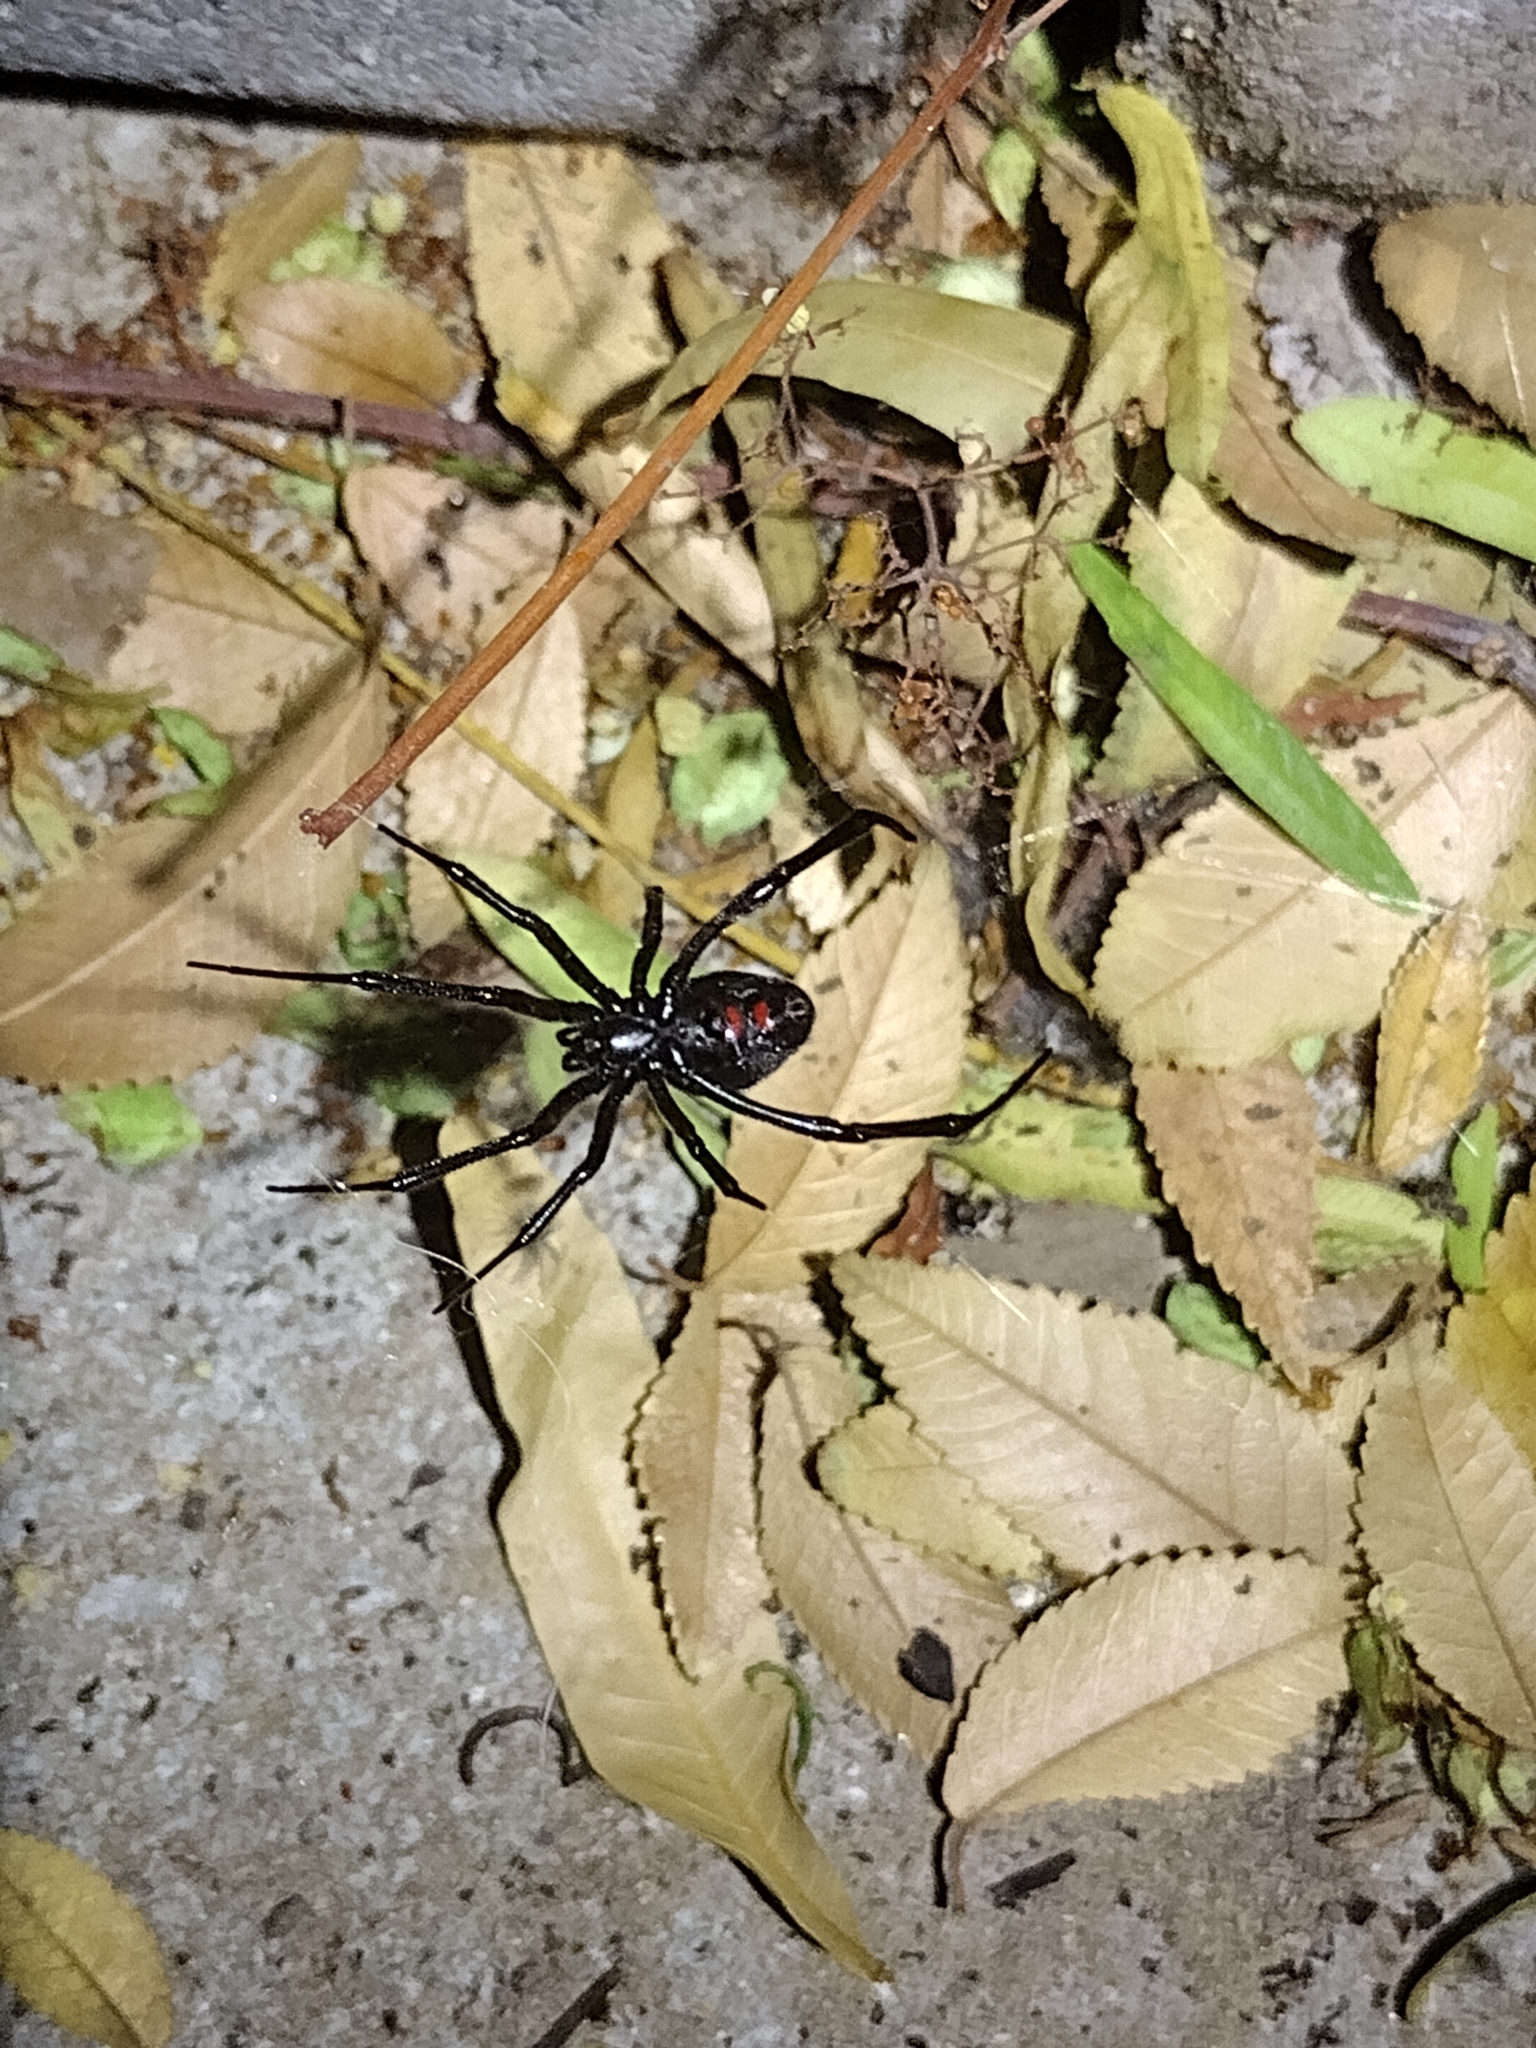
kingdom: Animalia
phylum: Arthropoda
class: Arachnida
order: Araneae
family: Theridiidae
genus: Latrodectus
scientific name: Latrodectus hesperus
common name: Western black widow
